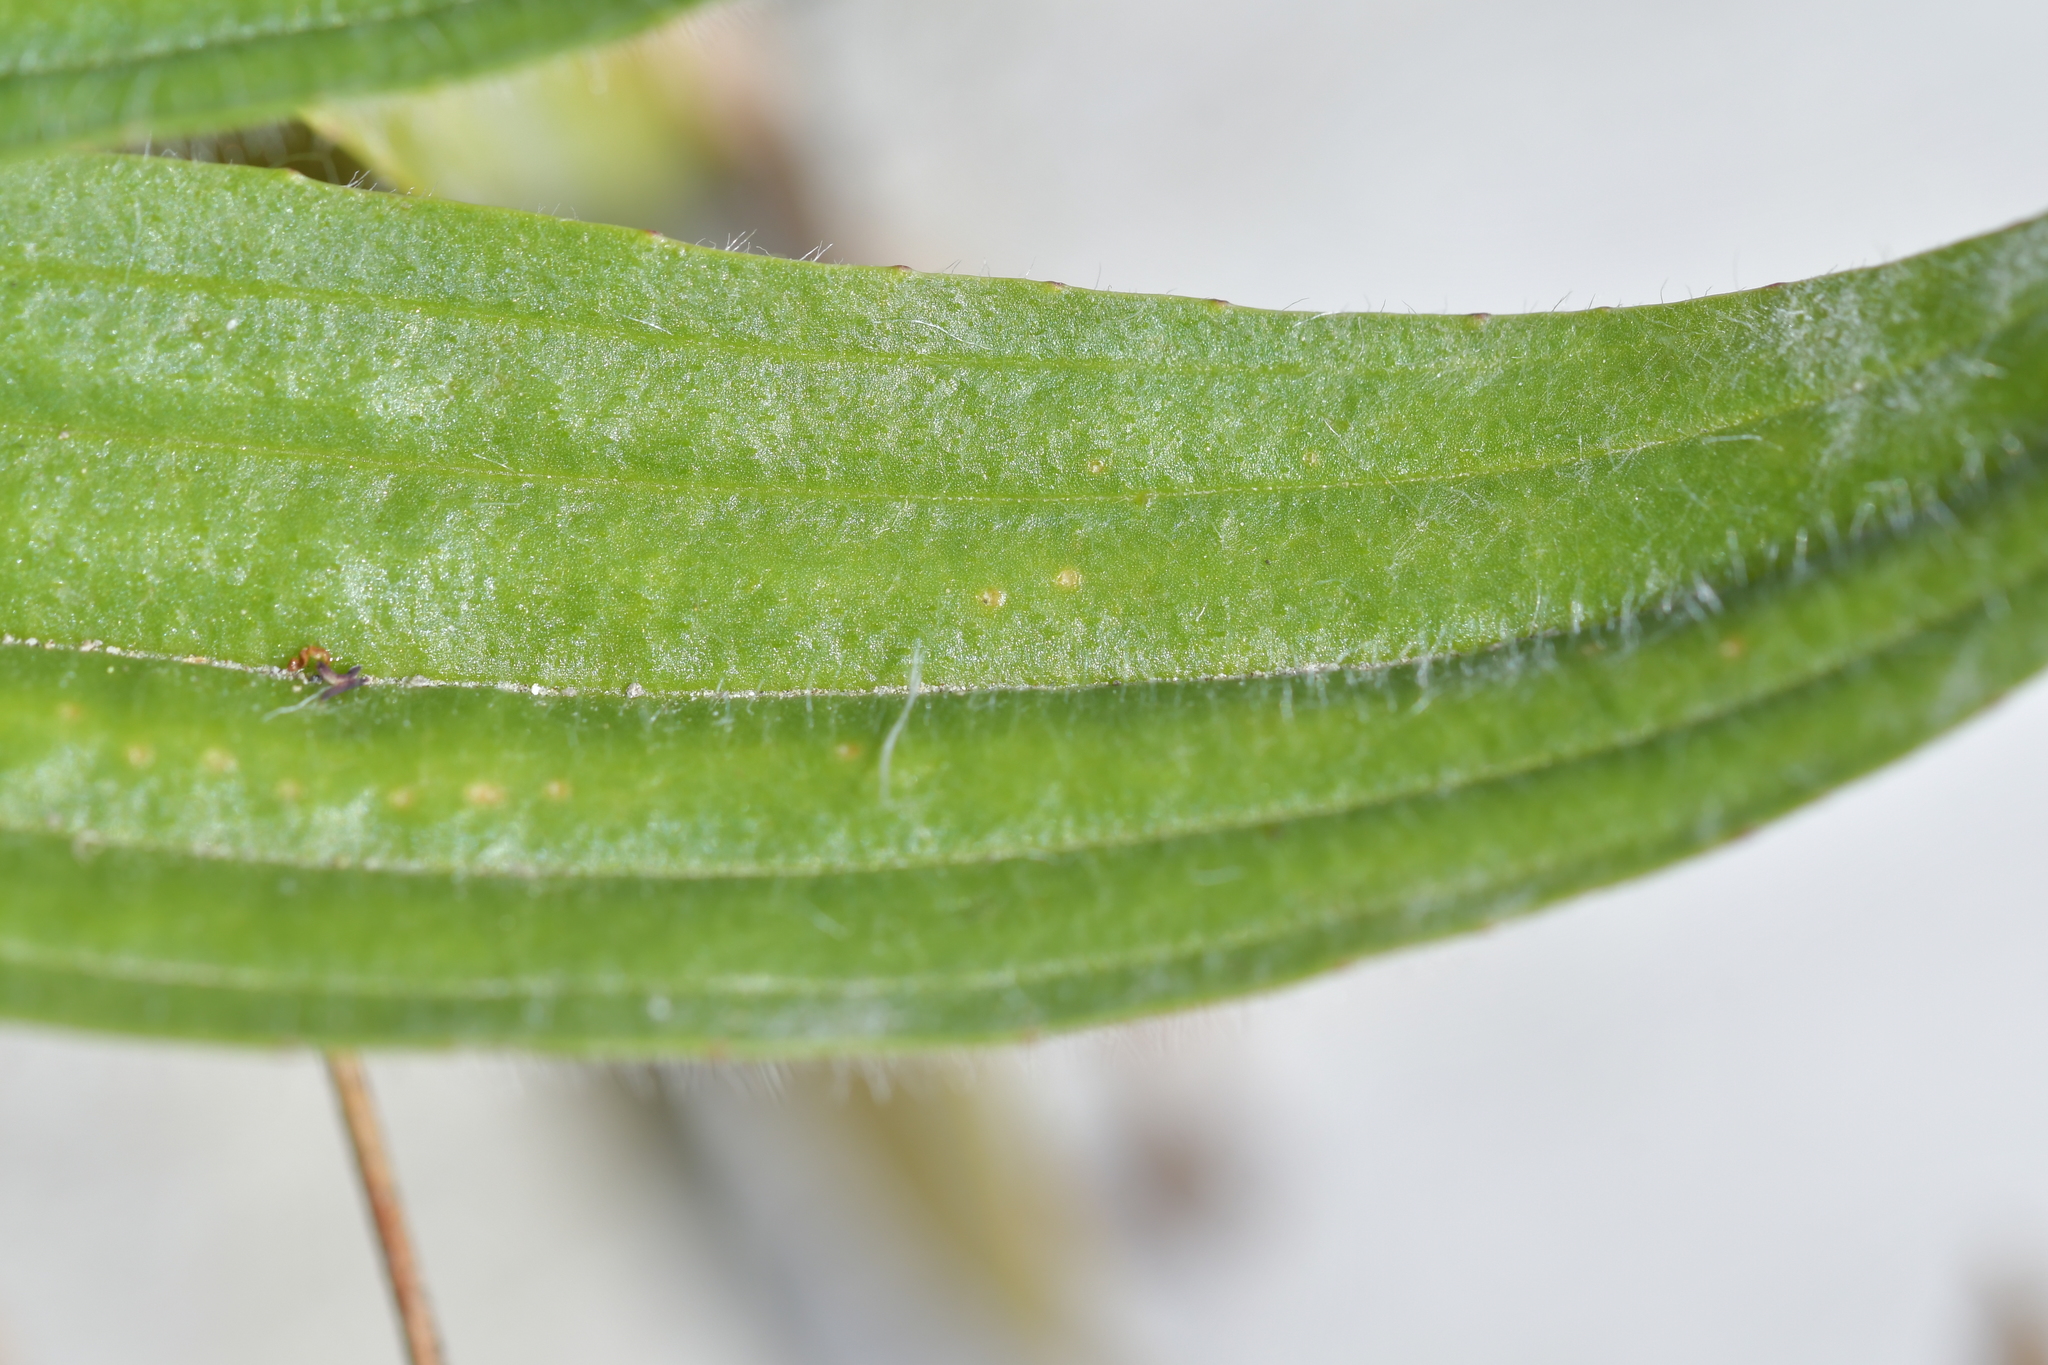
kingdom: Plantae
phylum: Tracheophyta
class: Magnoliopsida
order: Lamiales
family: Plantaginaceae
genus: Plantago
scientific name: Plantago lanceolata
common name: Ribwort plantain
